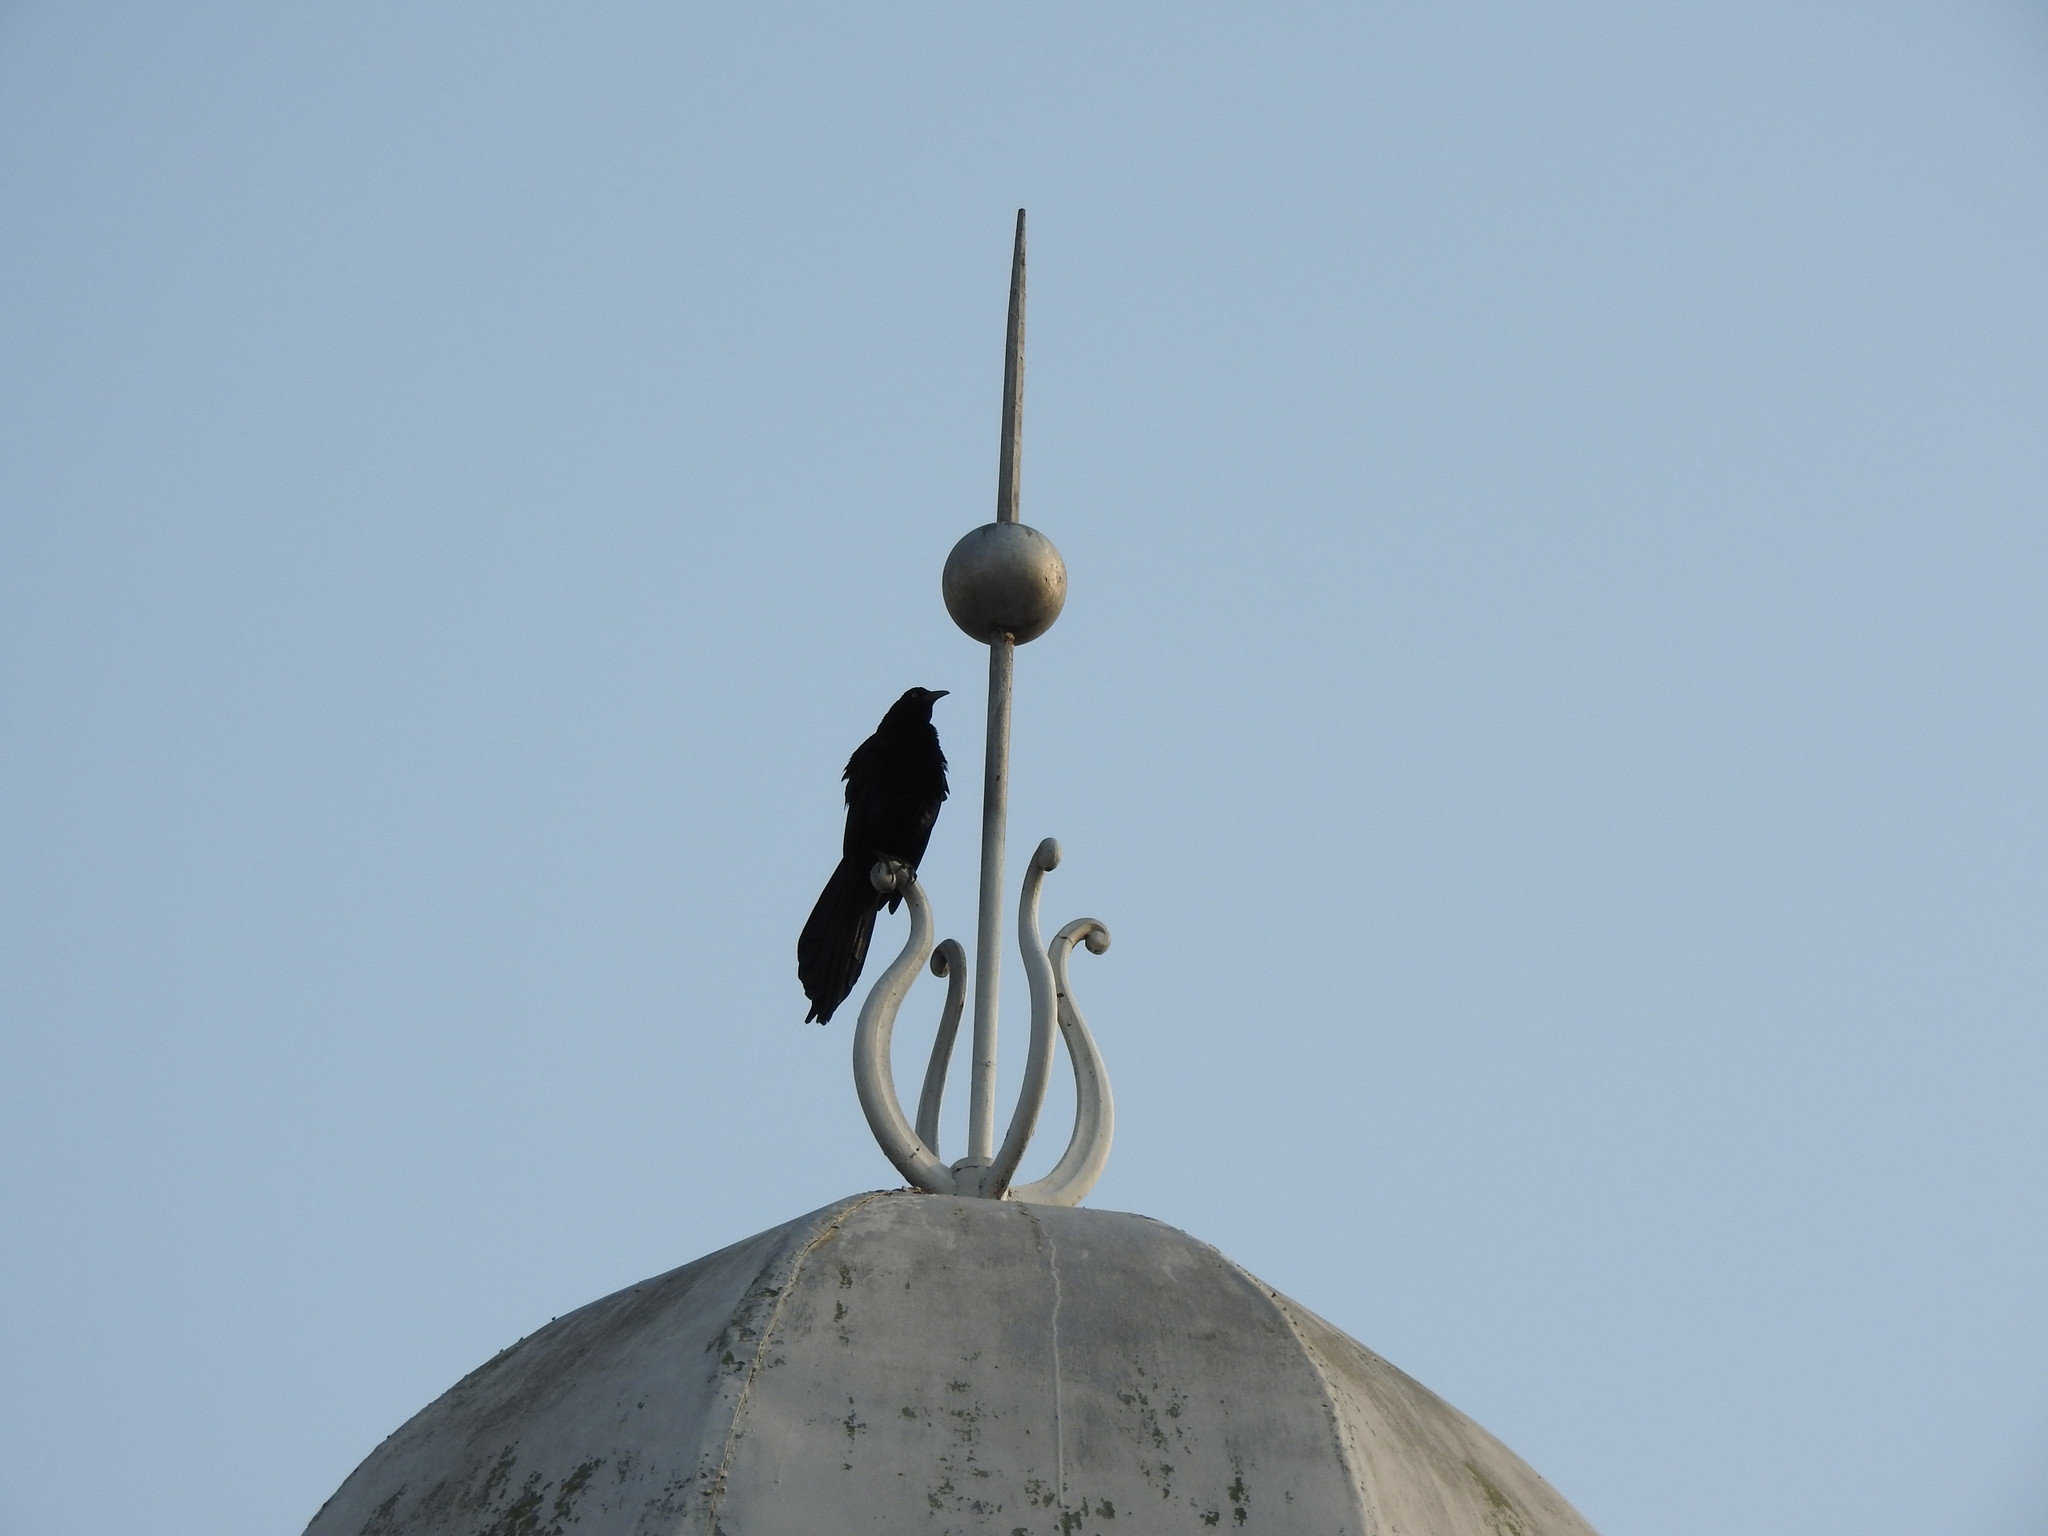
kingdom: Animalia
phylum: Chordata
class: Aves
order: Passeriformes
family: Icteridae
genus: Quiscalus
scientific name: Quiscalus mexicanus
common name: Great-tailed grackle
